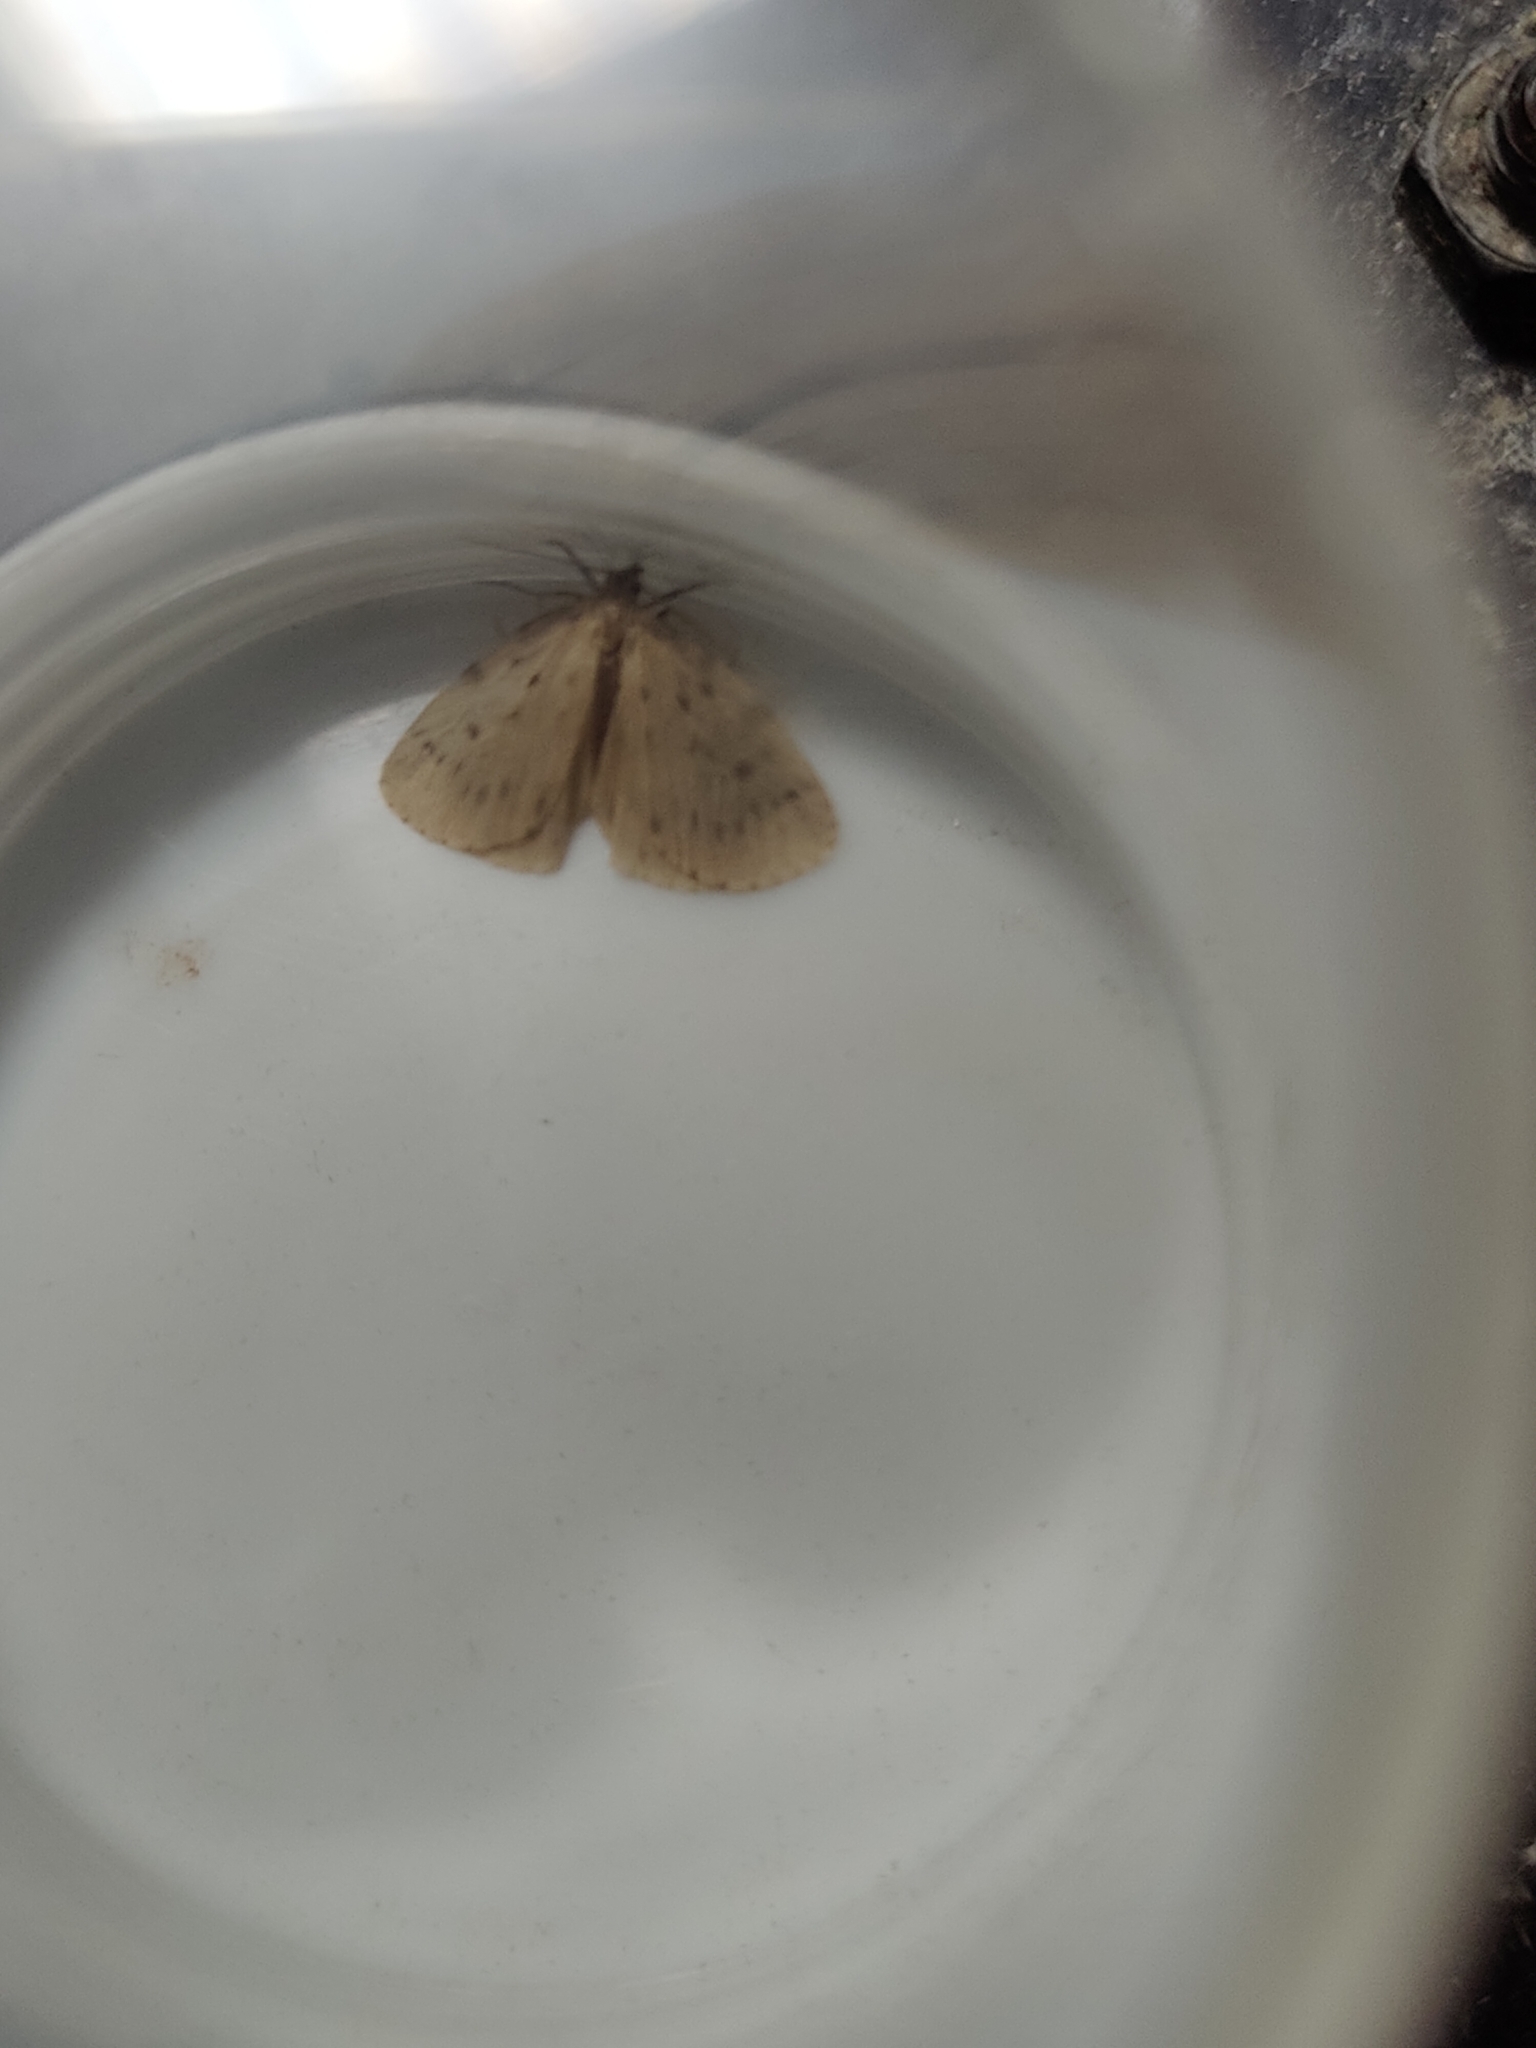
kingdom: Animalia
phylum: Arthropoda
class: Insecta
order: Lepidoptera
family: Erebidae
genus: Thumatha
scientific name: Thumatha senex
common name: Round-winged muslin
